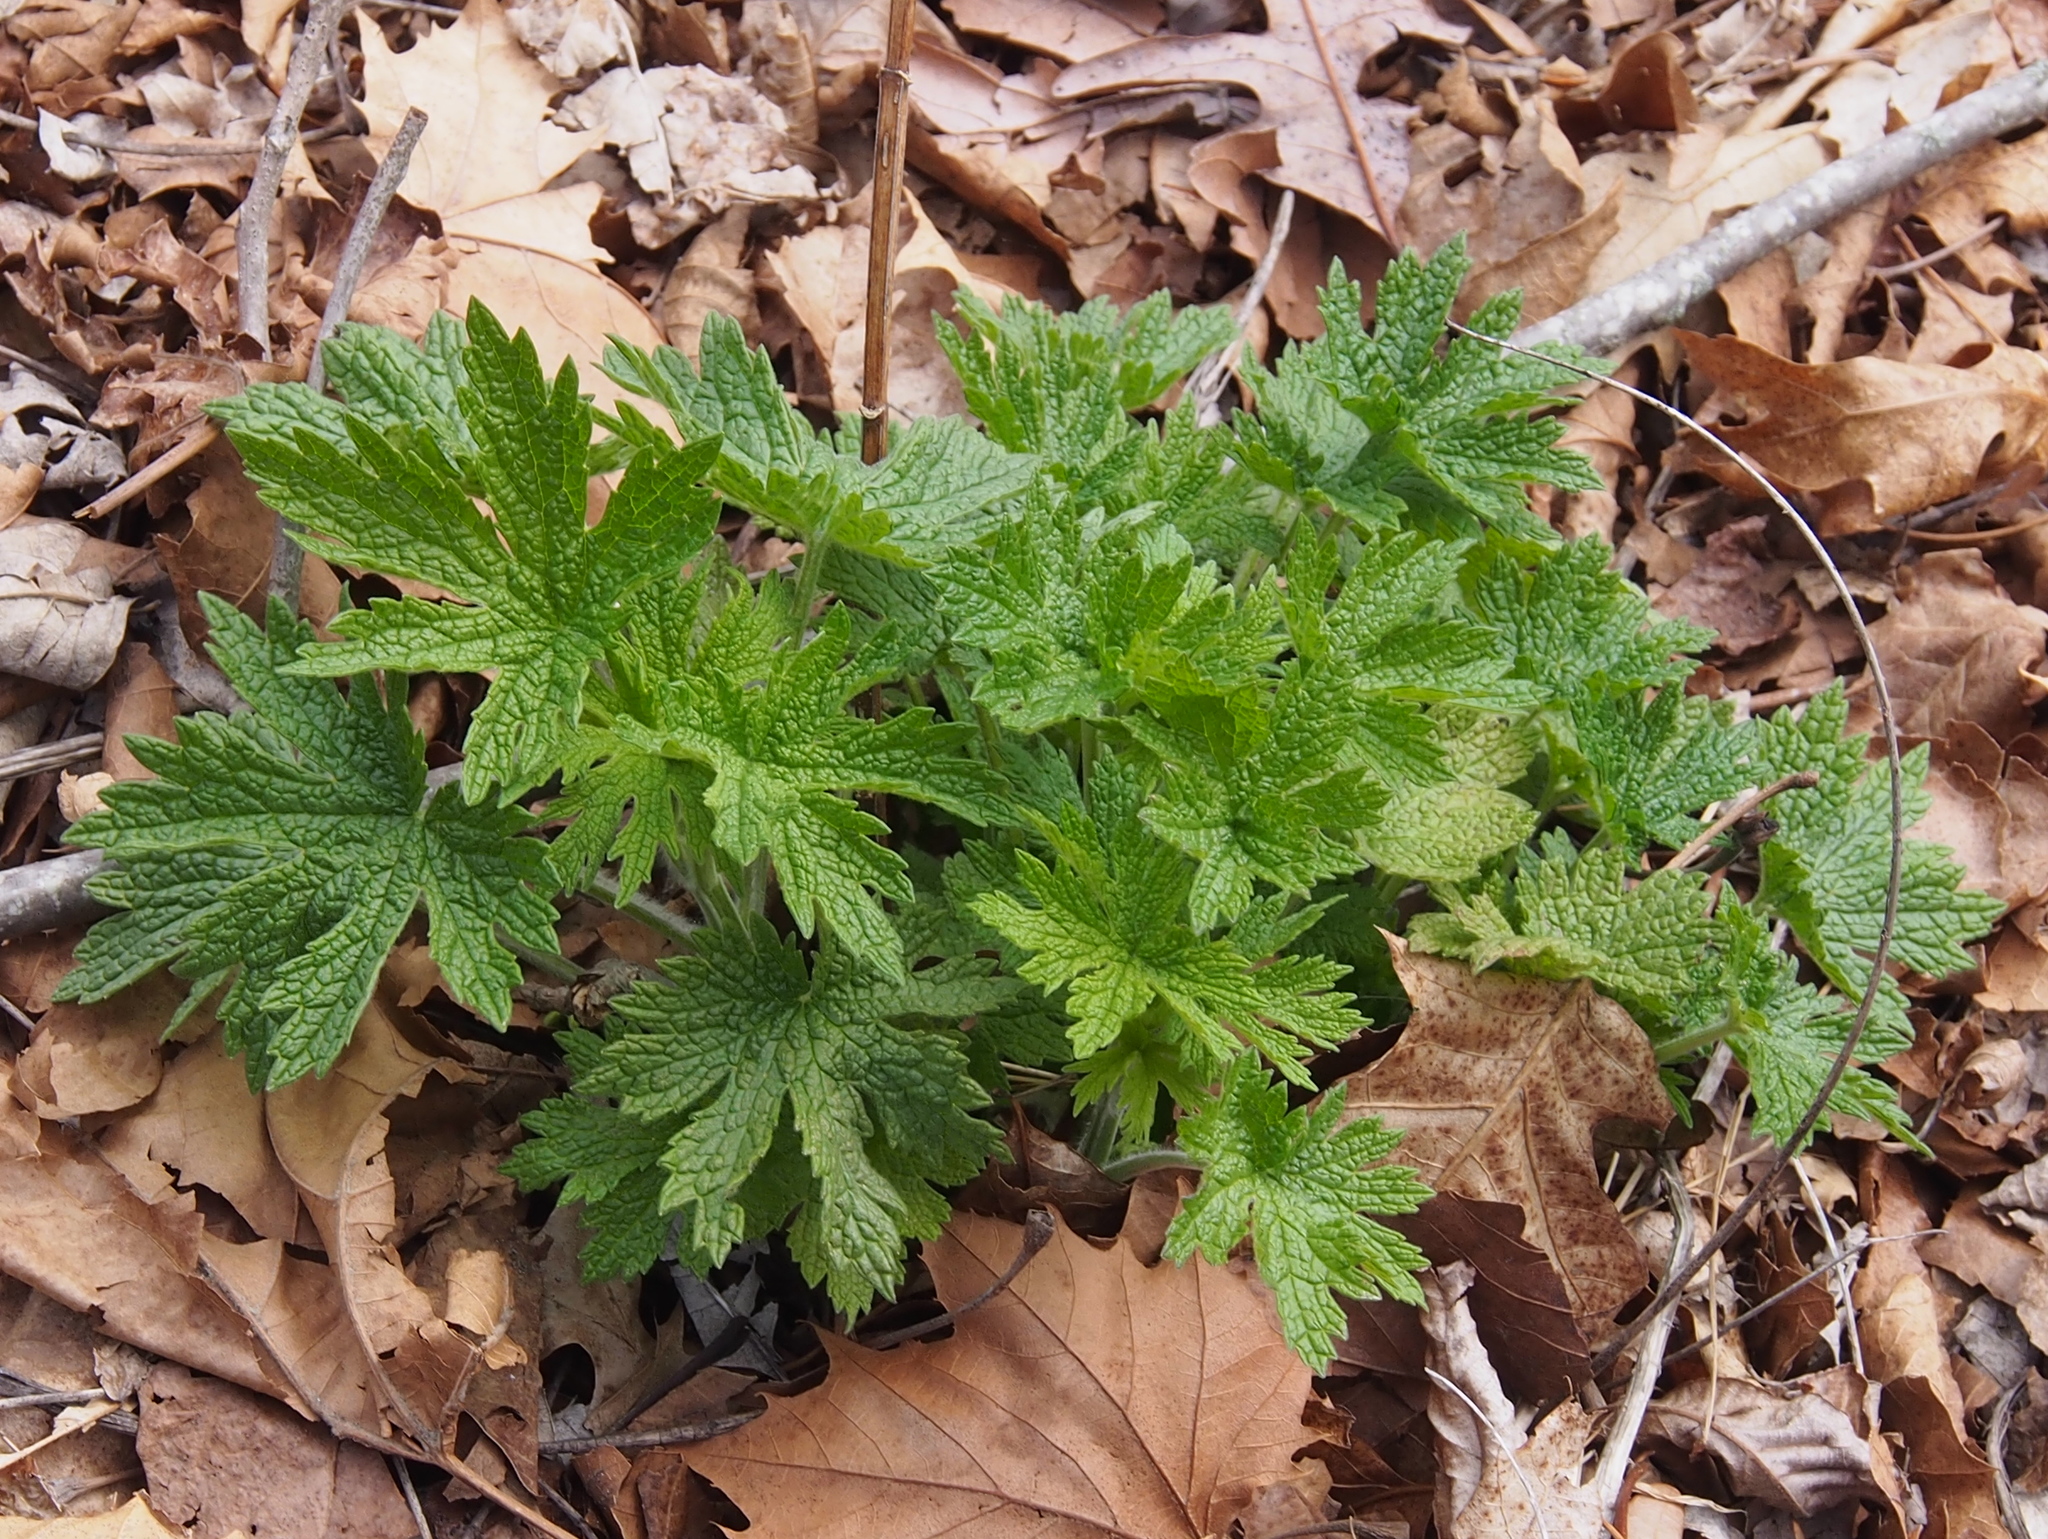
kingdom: Plantae
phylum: Tracheophyta
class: Magnoliopsida
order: Lamiales
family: Lamiaceae
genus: Leonurus
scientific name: Leonurus cardiaca
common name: Motherwort
